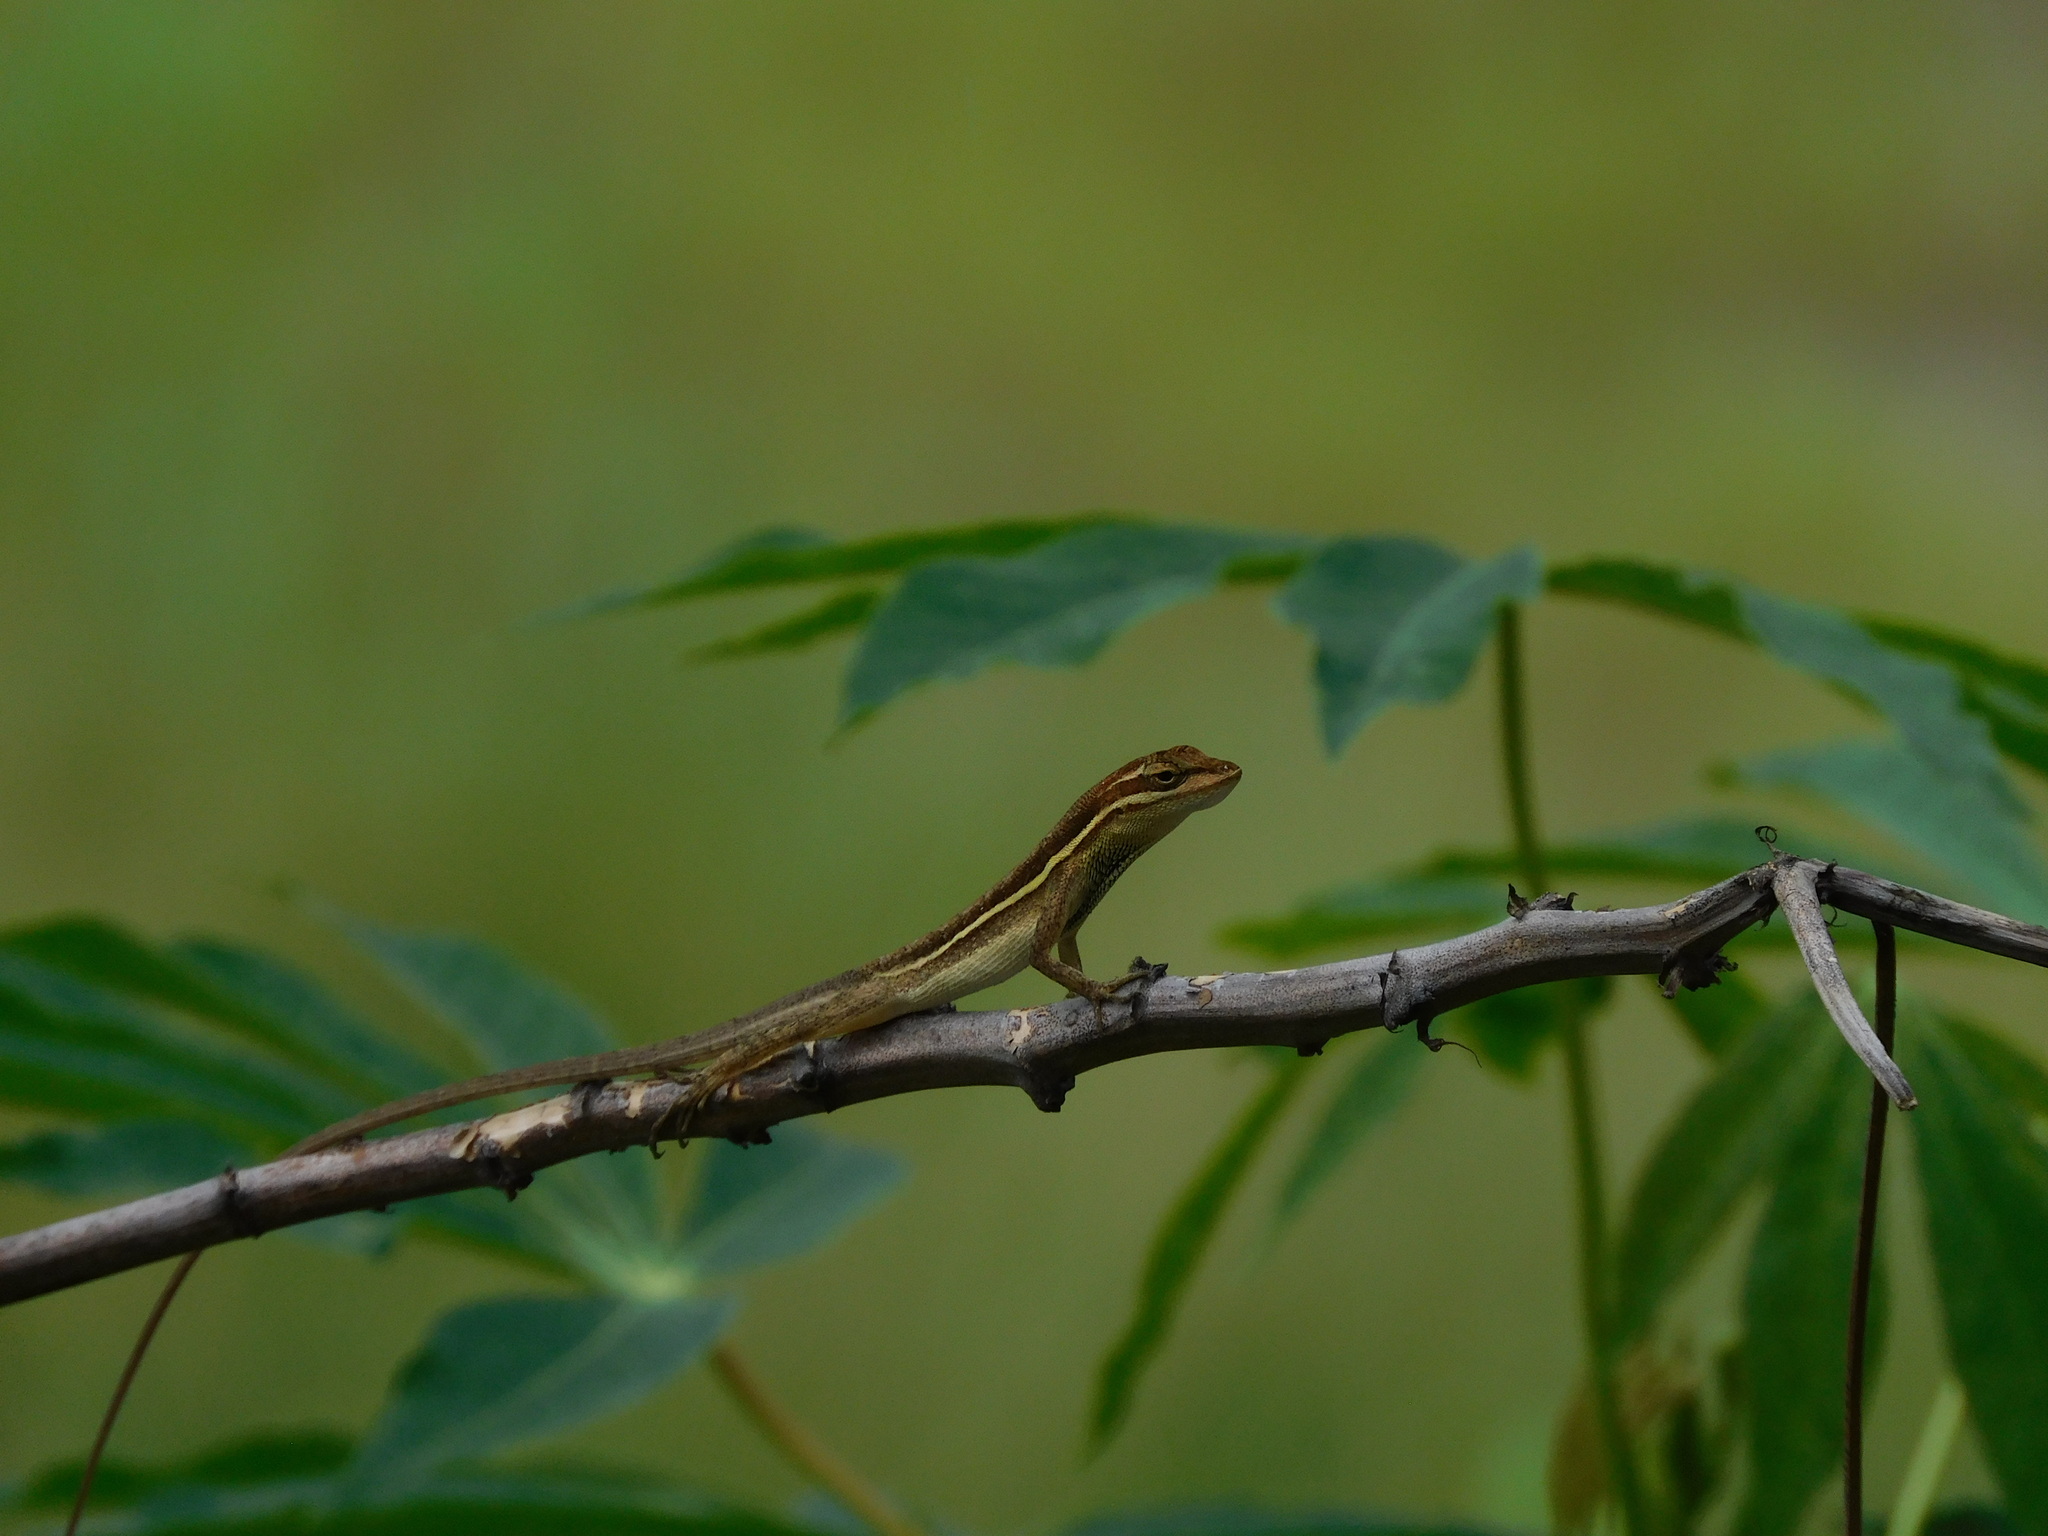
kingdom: Animalia
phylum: Chordata
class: Squamata
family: Dactyloidae
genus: Anolis
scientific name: Anolis auratus
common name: Grass anole
